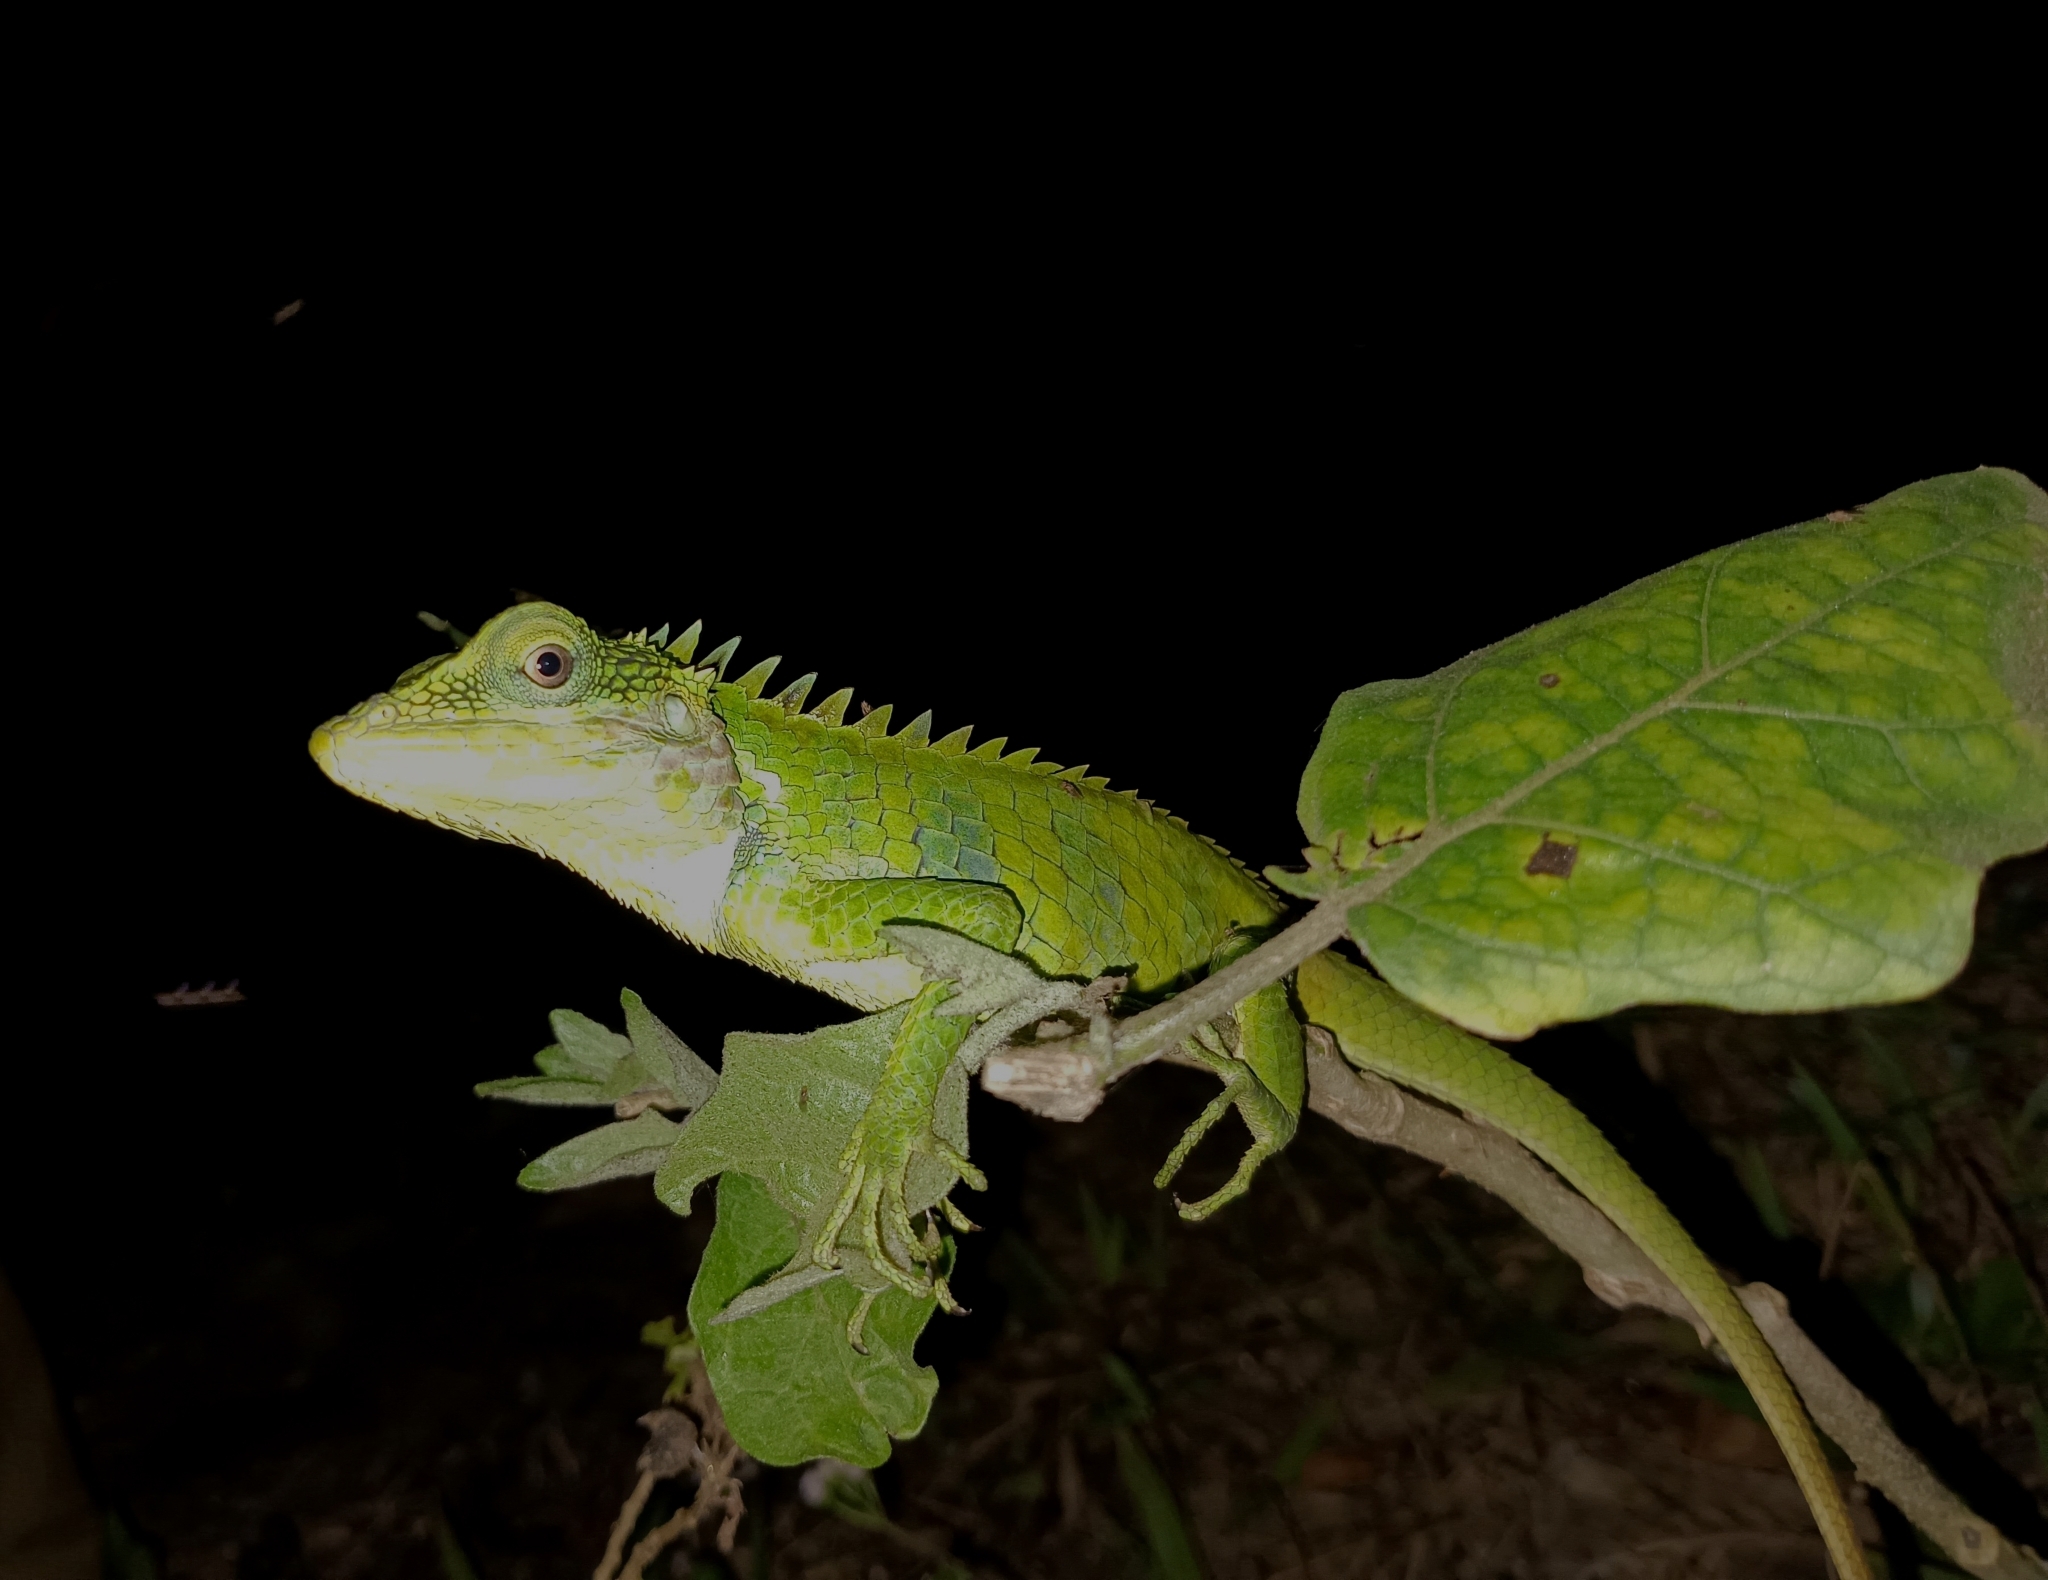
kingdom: Animalia
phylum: Chordata
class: Squamata
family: Agamidae
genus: Calotes
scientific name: Calotes grandisquamis
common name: Big scaled variable lizard
